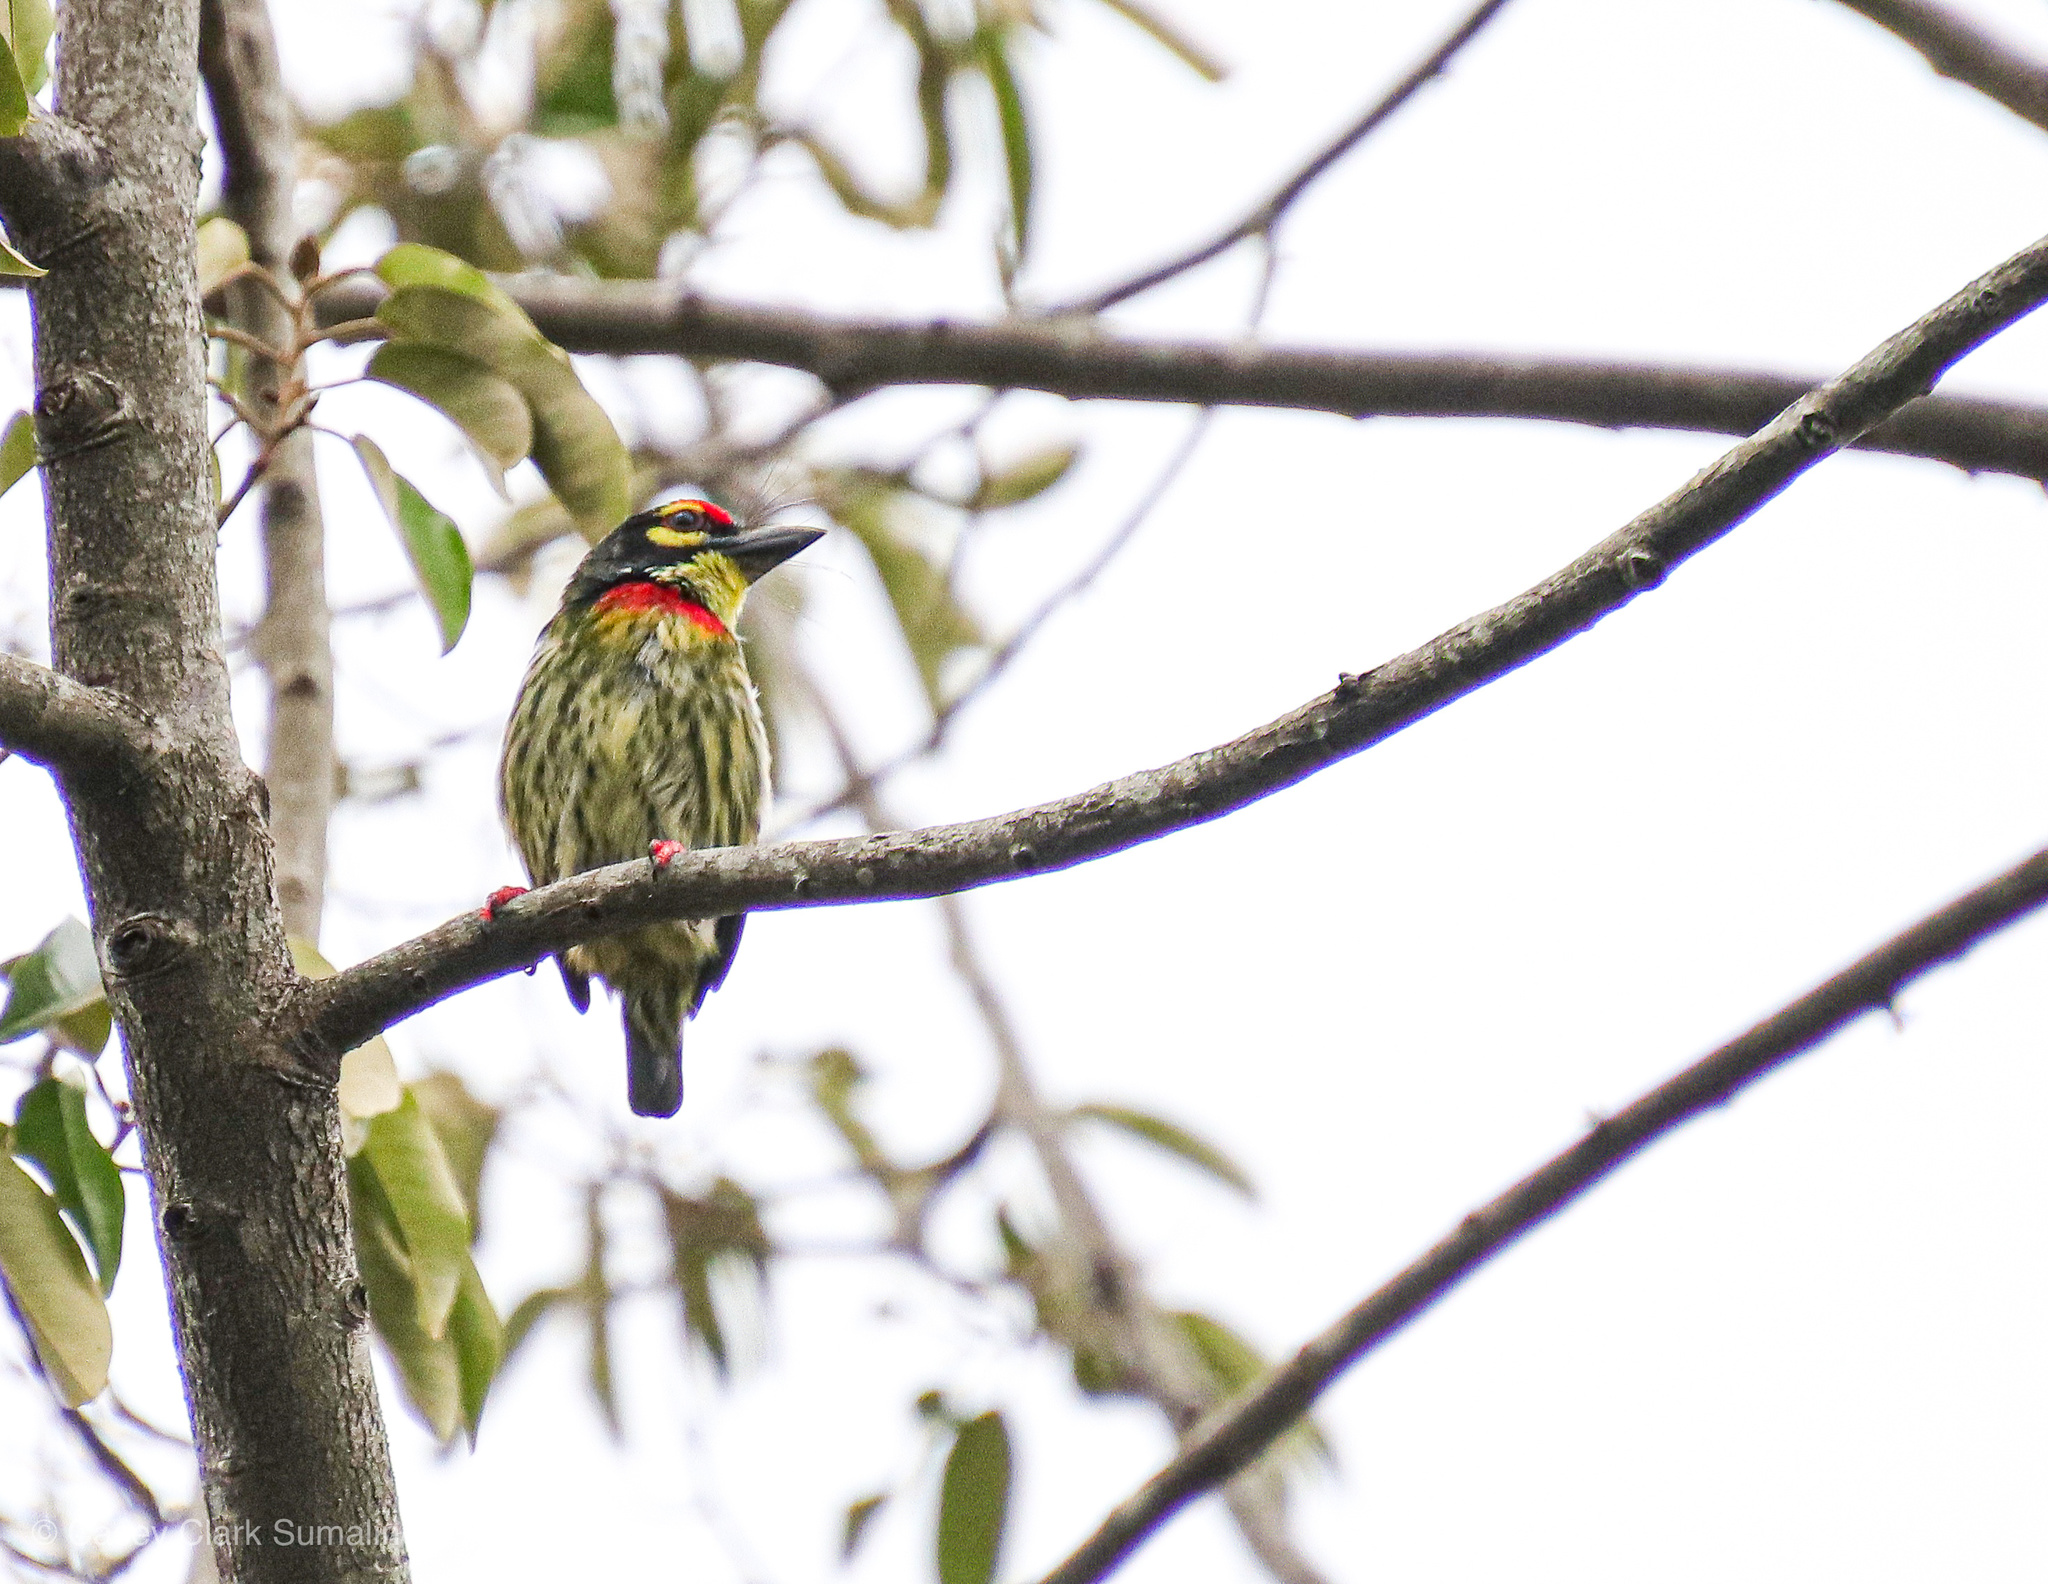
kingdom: Animalia
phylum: Chordata
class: Aves
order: Piciformes
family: Megalaimidae
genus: Psilopogon
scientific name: Psilopogon haemacephalus
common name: Coppersmith barbet
